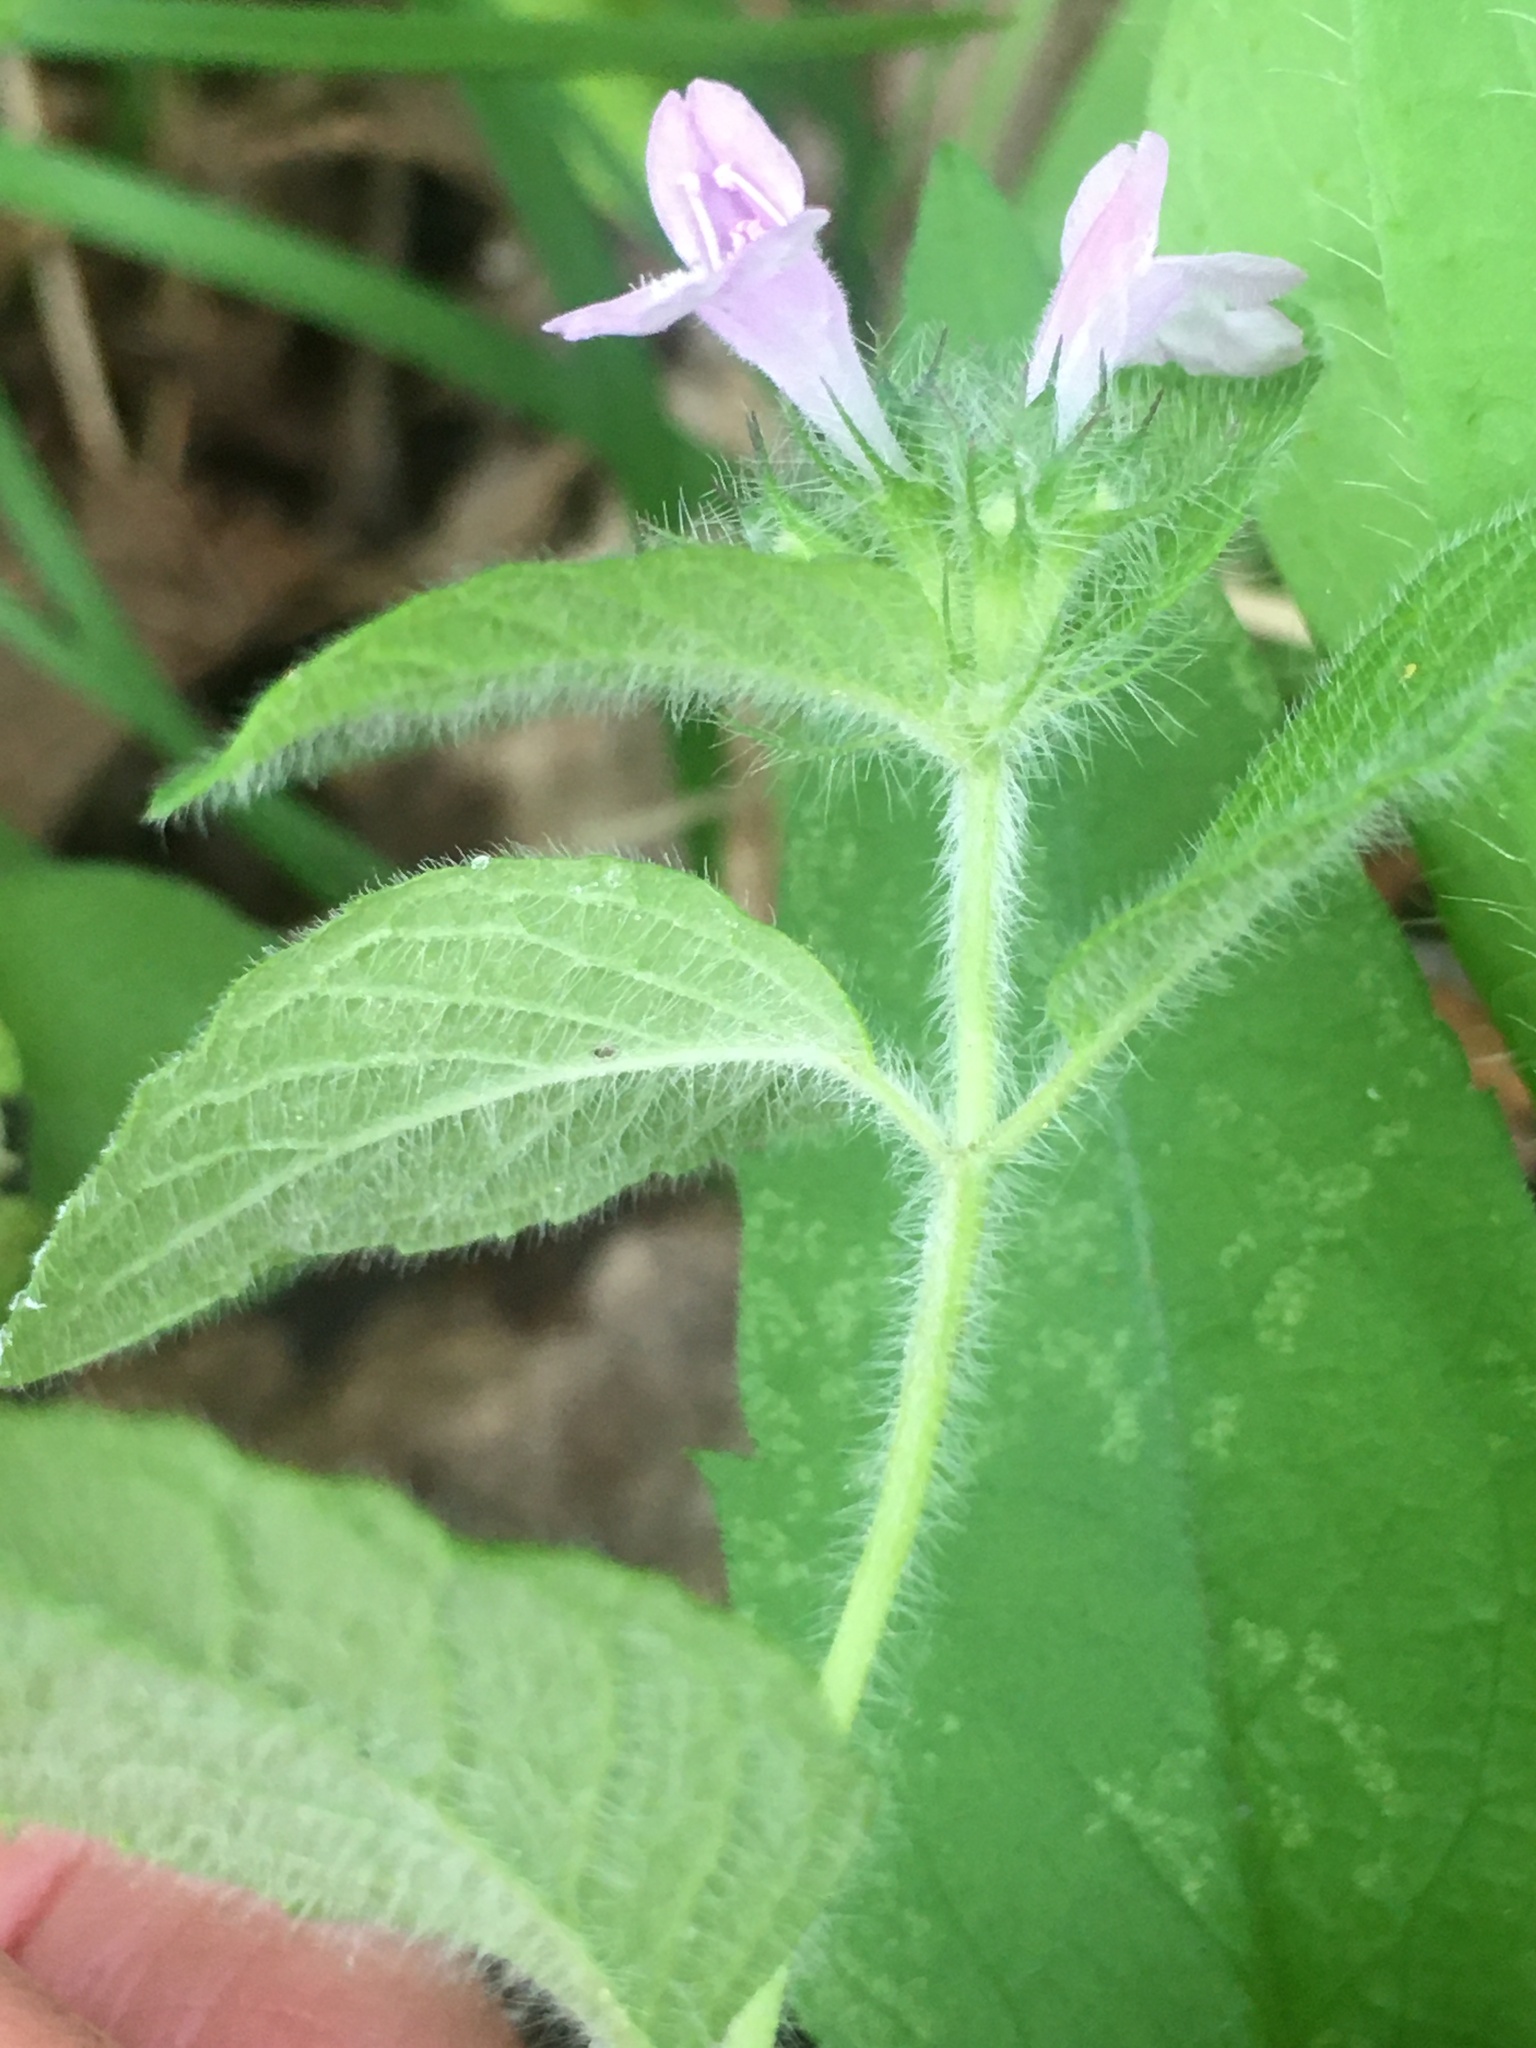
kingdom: Plantae
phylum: Tracheophyta
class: Magnoliopsida
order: Lamiales
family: Lamiaceae
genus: Clinopodium
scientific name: Clinopodium vulgare
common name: Wild basil
